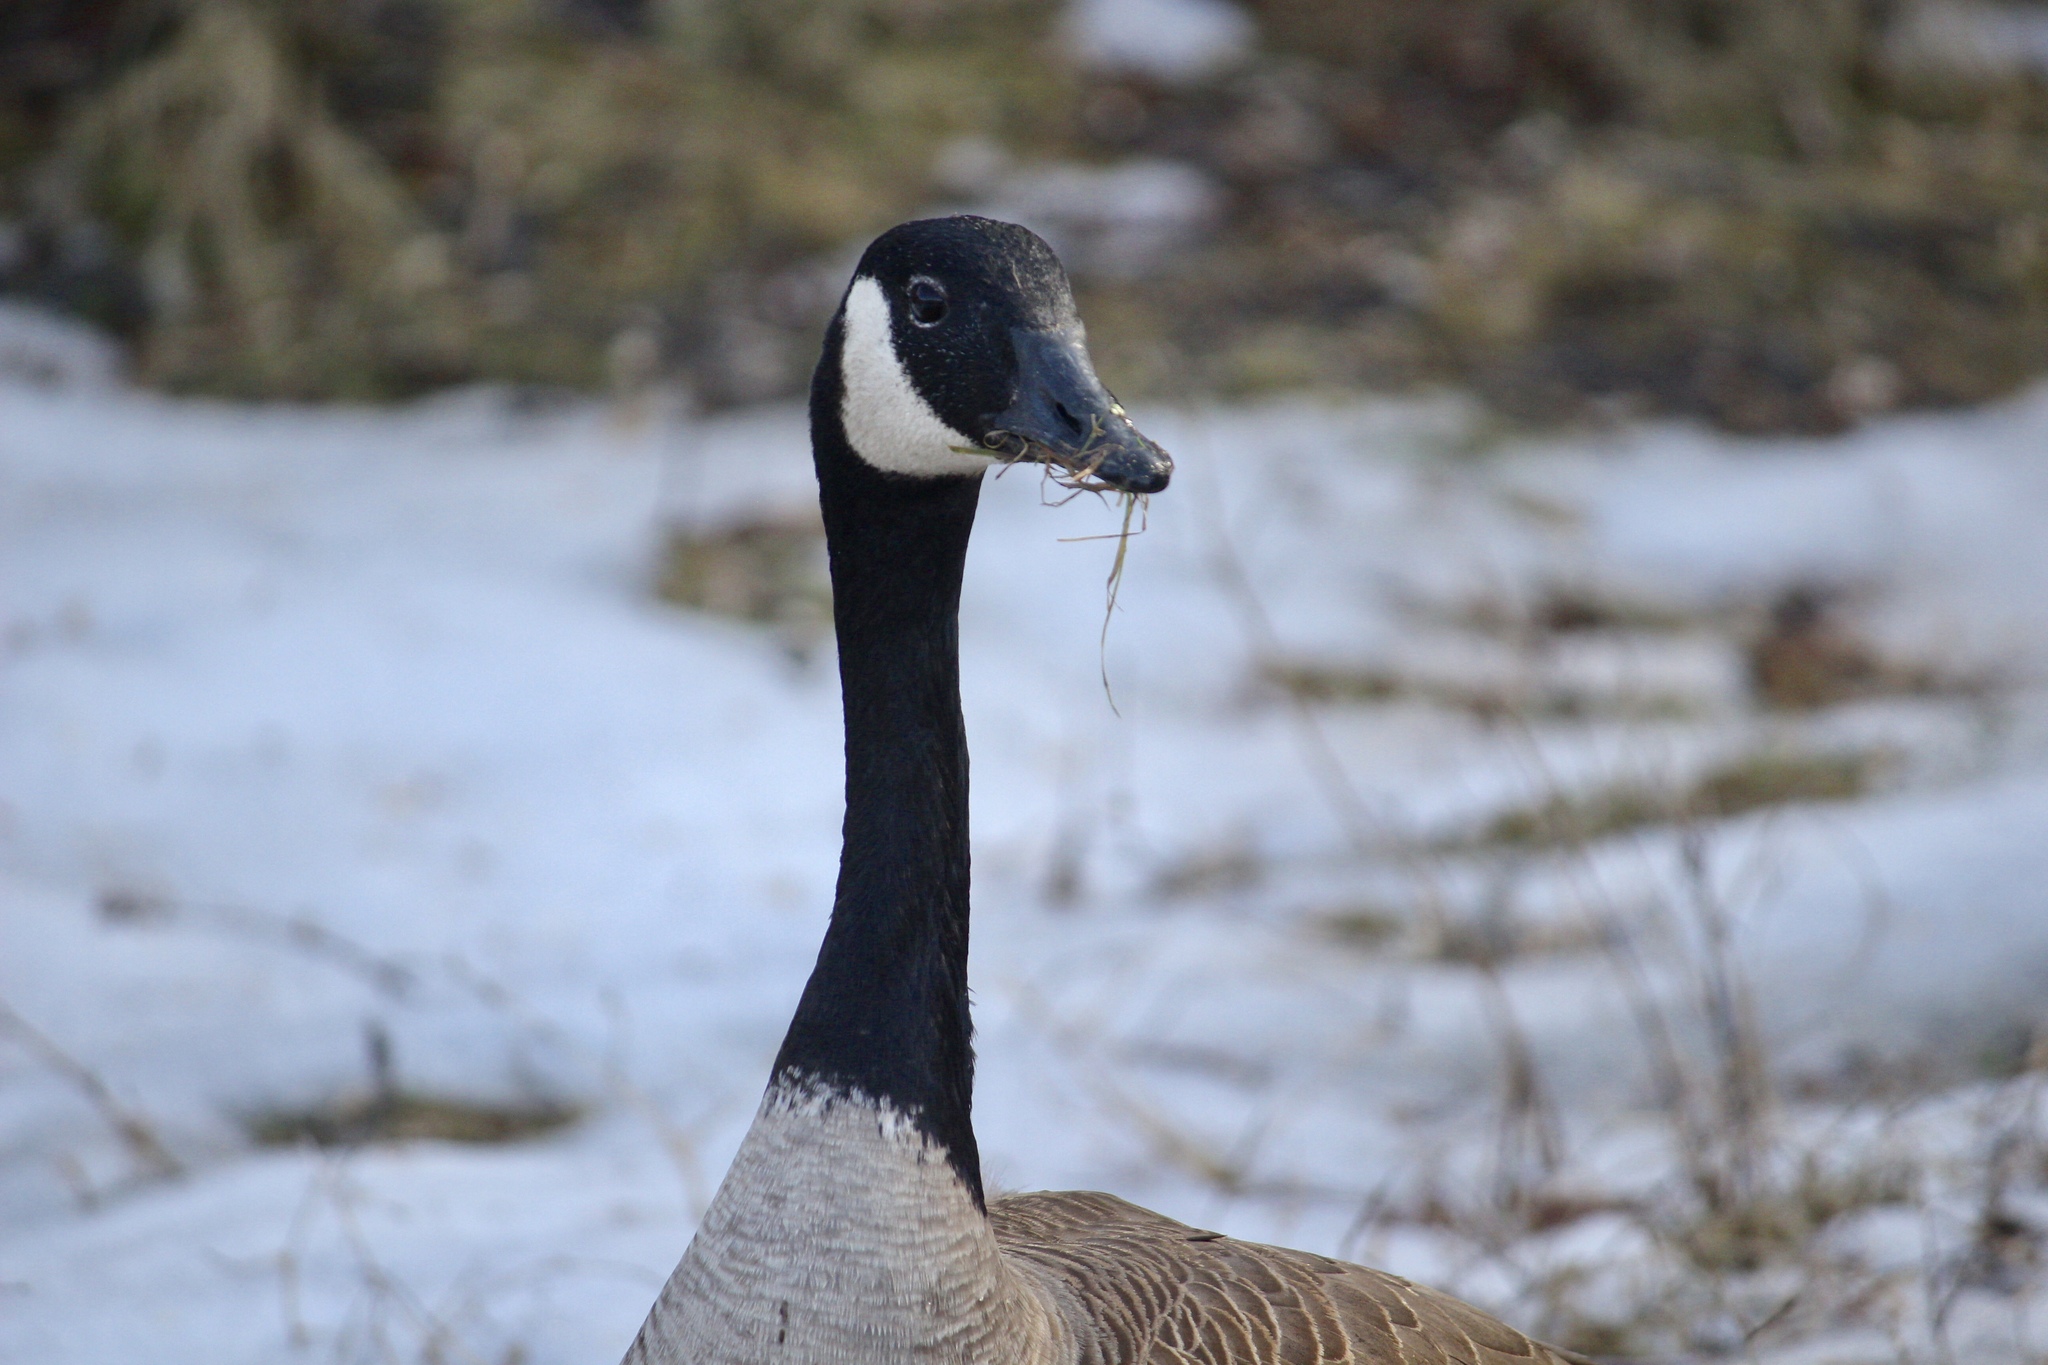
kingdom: Animalia
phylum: Chordata
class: Aves
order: Anseriformes
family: Anatidae
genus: Branta
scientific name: Branta canadensis
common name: Canada goose
